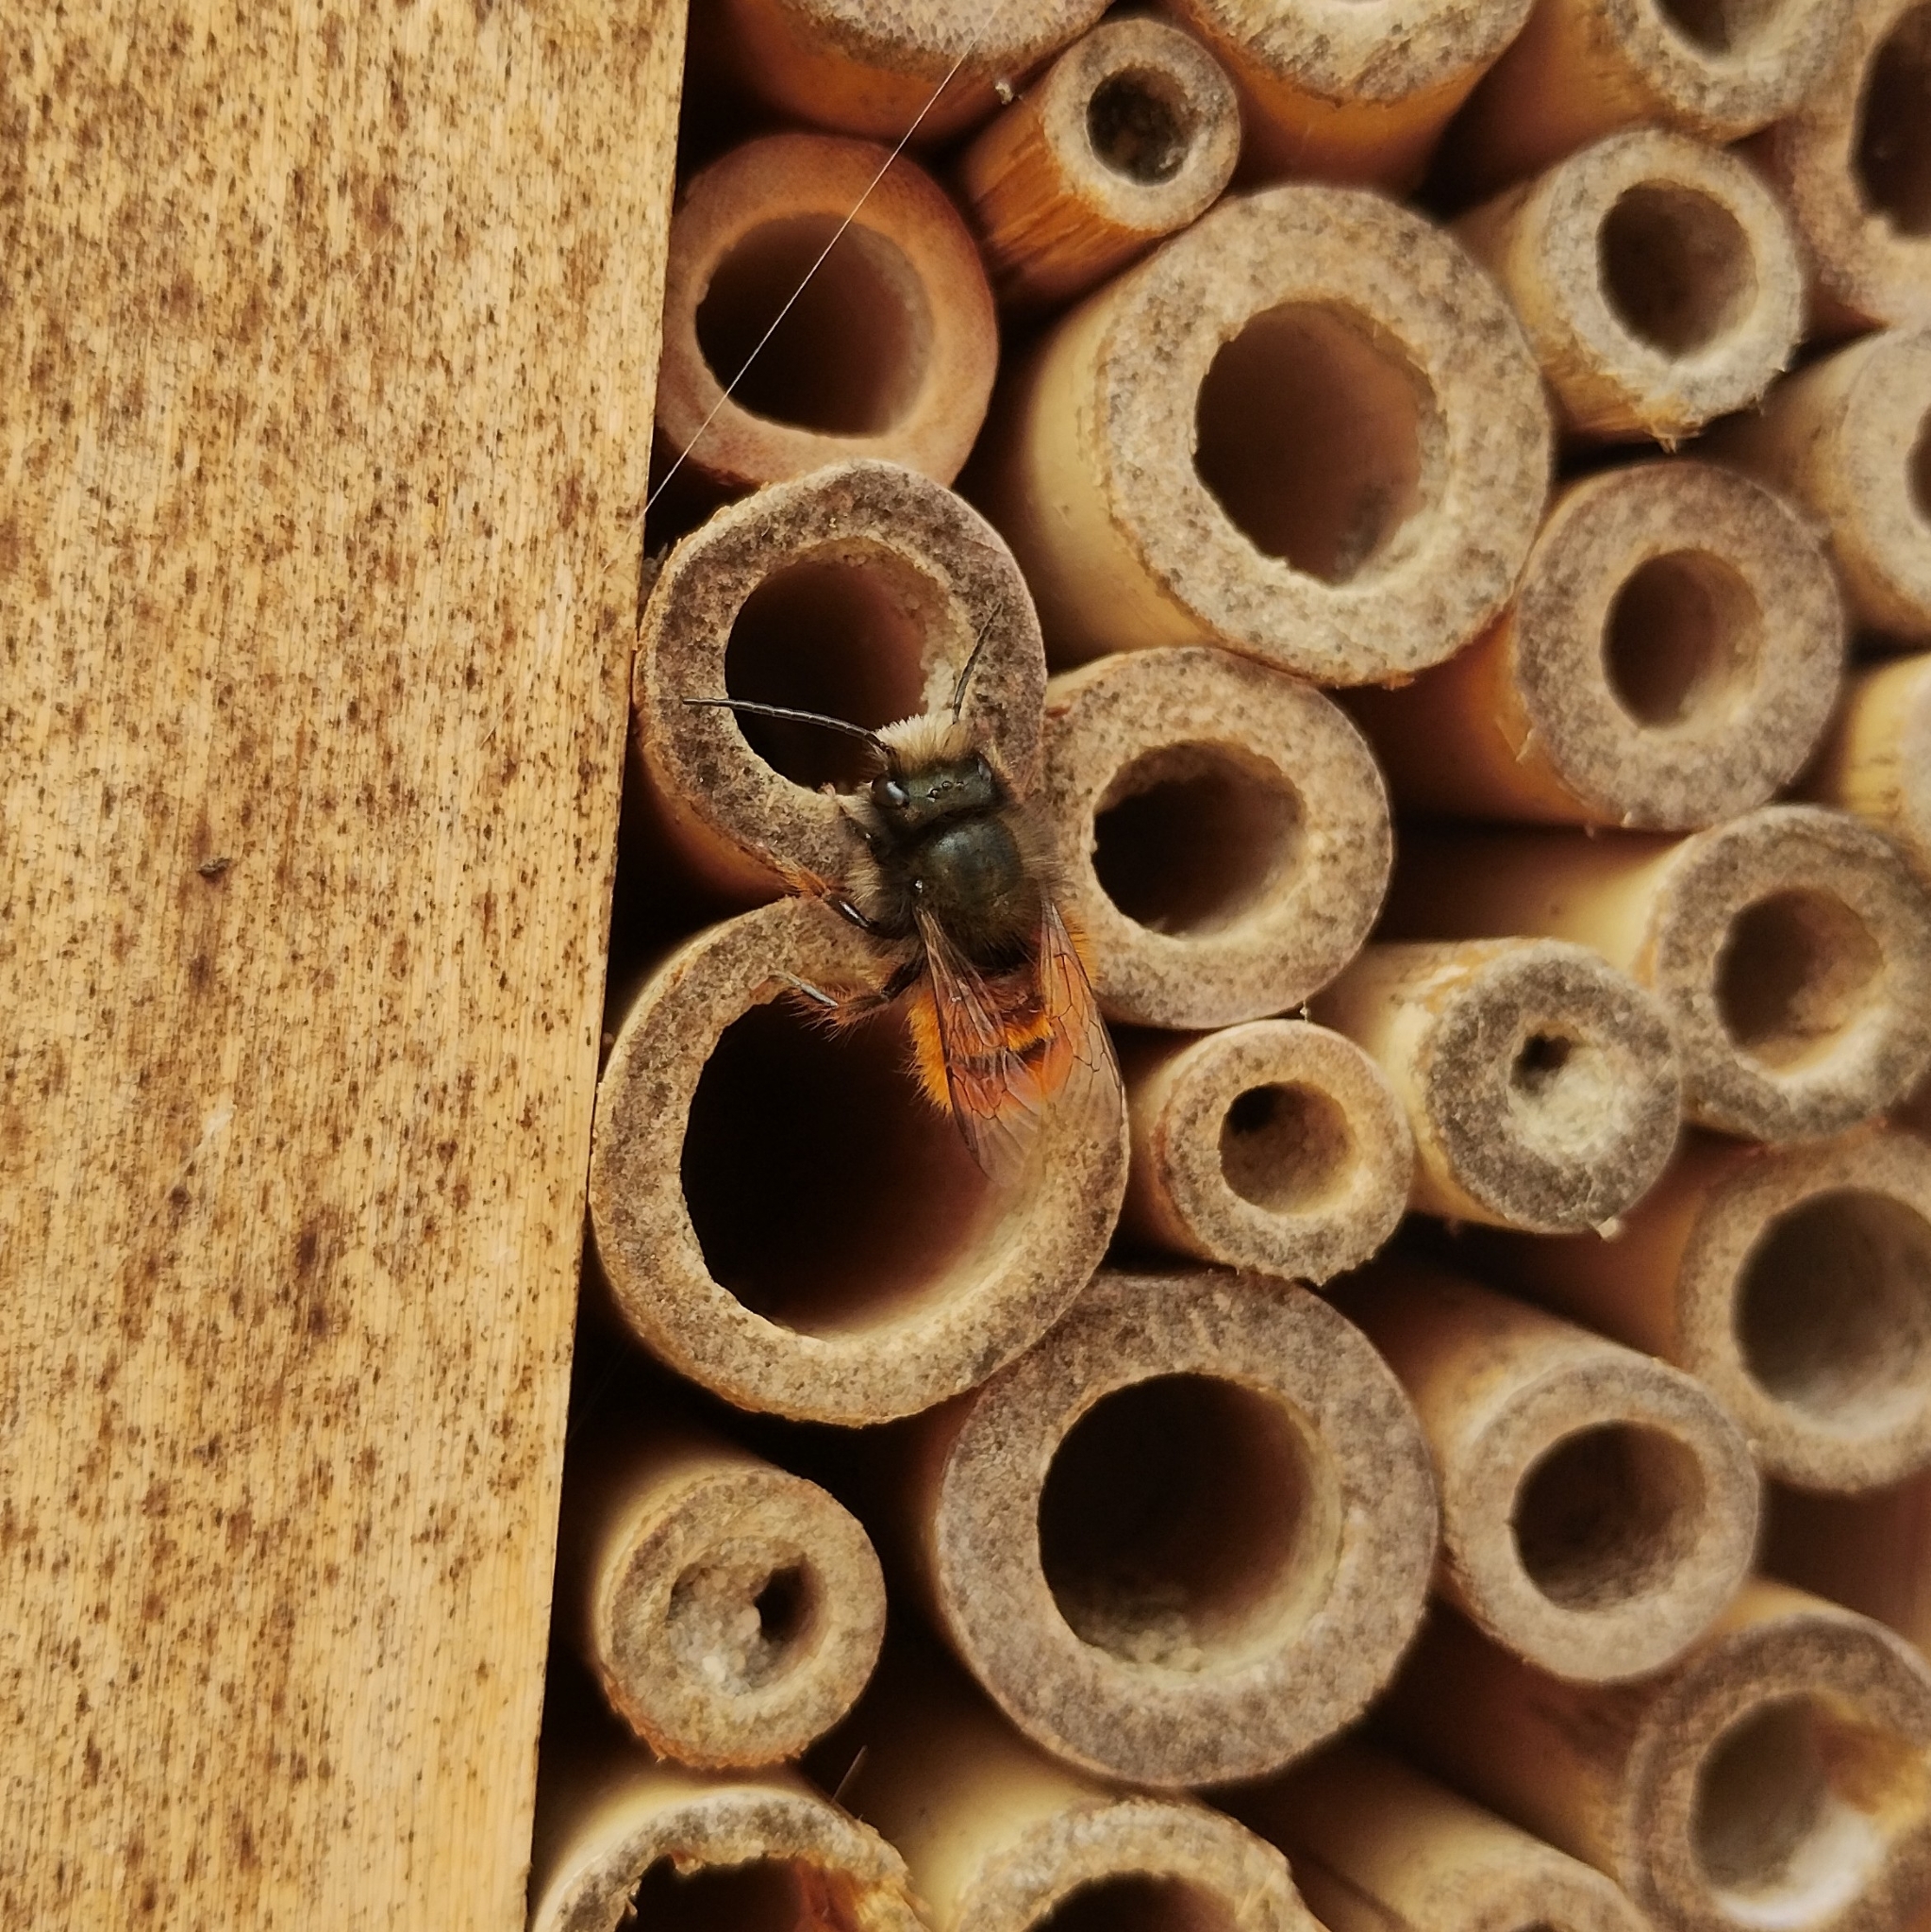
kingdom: Animalia
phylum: Arthropoda
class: Insecta
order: Hymenoptera
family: Megachilidae
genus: Osmia
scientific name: Osmia cornuta
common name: Mason bee
